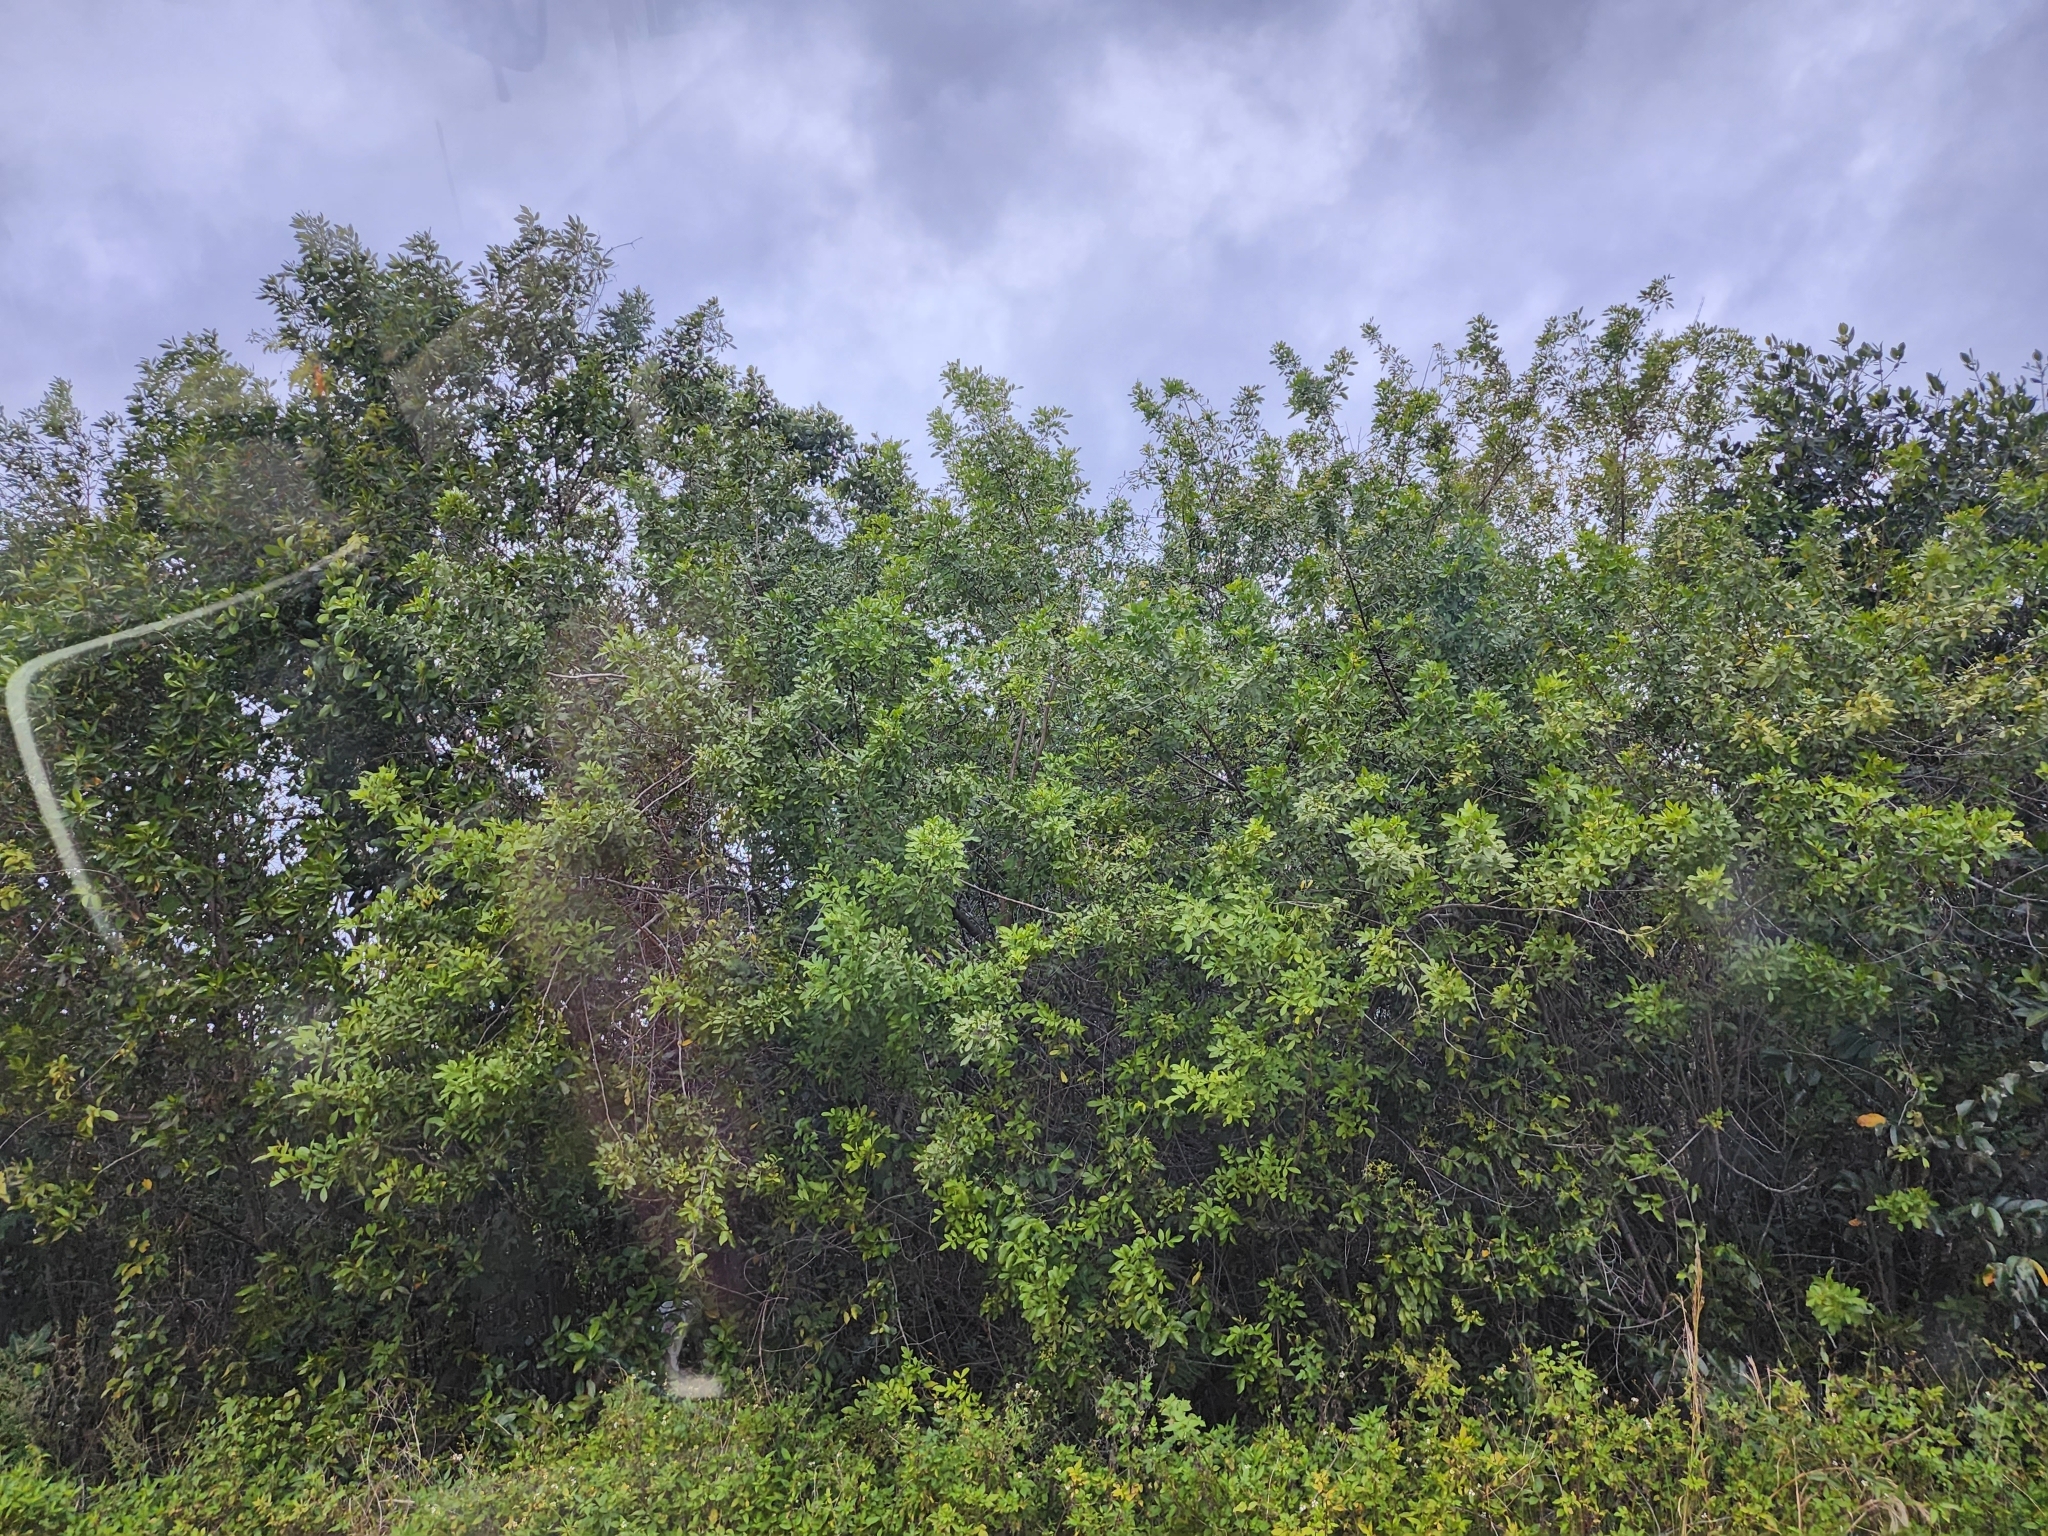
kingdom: Plantae
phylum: Tracheophyta
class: Magnoliopsida
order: Sapindales
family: Anacardiaceae
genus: Schinus
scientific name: Schinus terebinthifolia
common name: Brazilian peppertree
